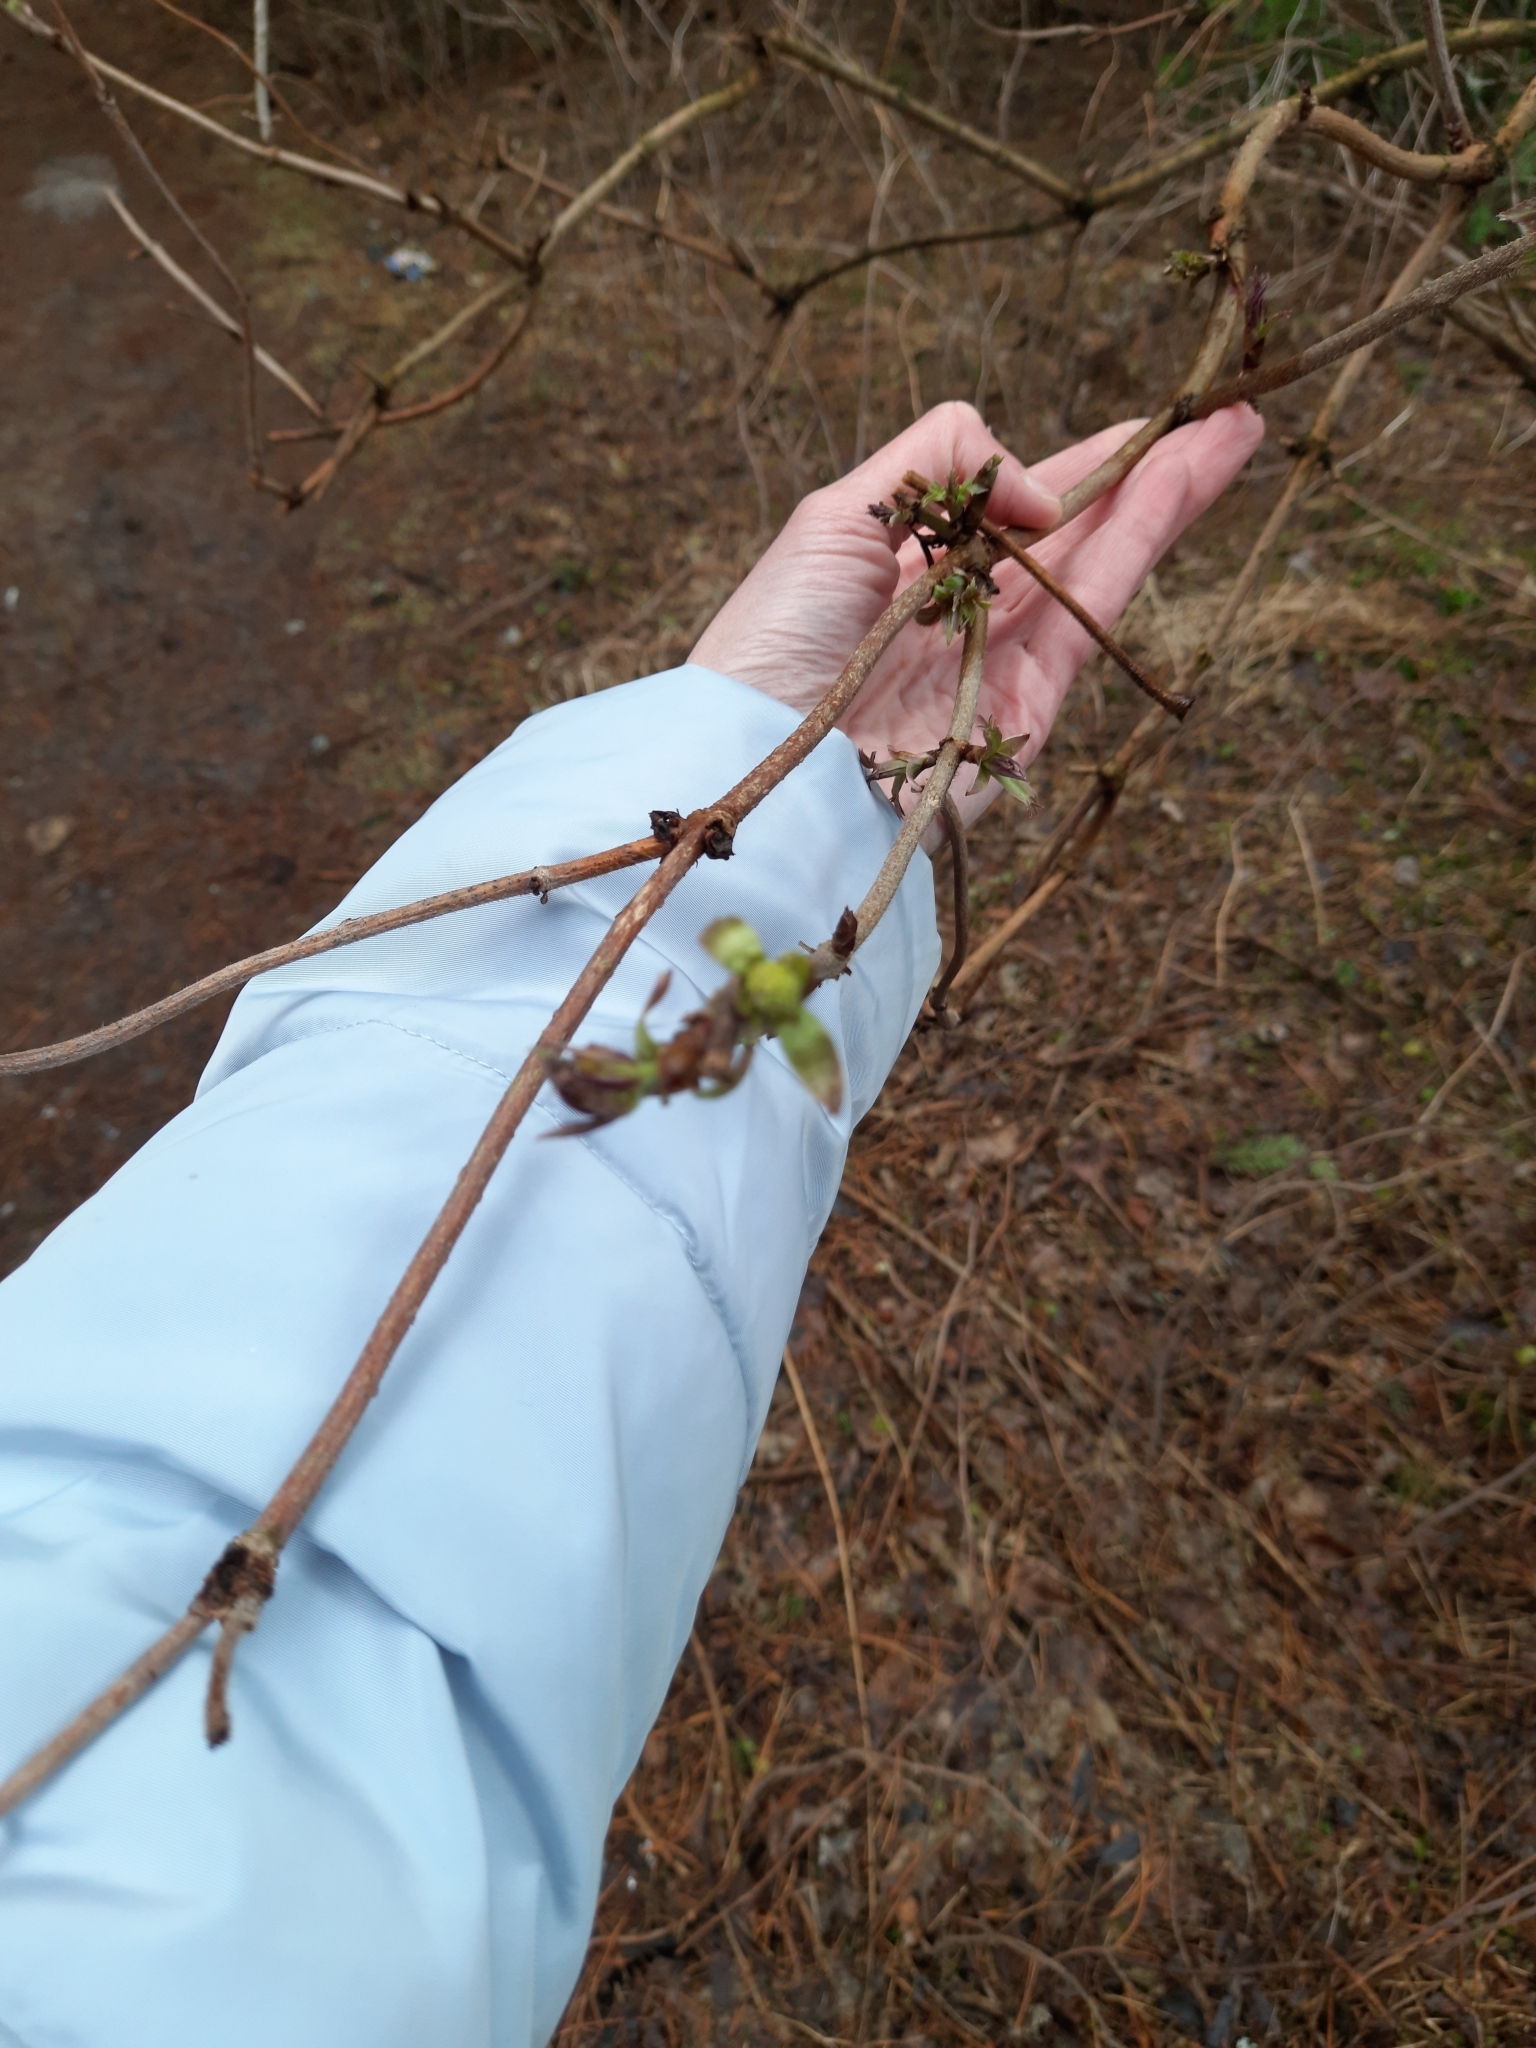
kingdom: Plantae
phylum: Tracheophyta
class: Magnoliopsida
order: Dipsacales
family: Viburnaceae
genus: Sambucus
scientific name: Sambucus sibirica
